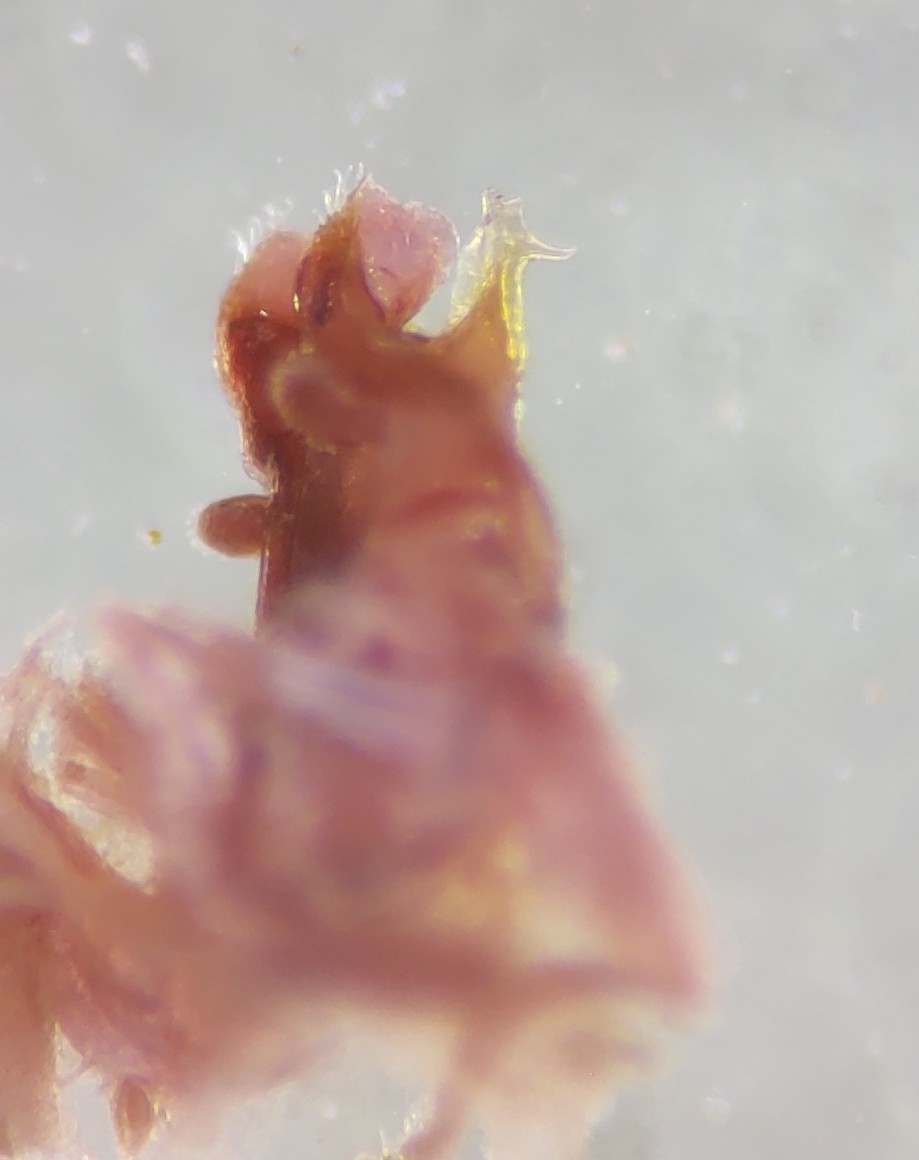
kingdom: Animalia
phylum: Arthropoda
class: Diplopoda
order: Spirostreptida
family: Cambalidae
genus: Cambala
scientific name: Cambala annulata
